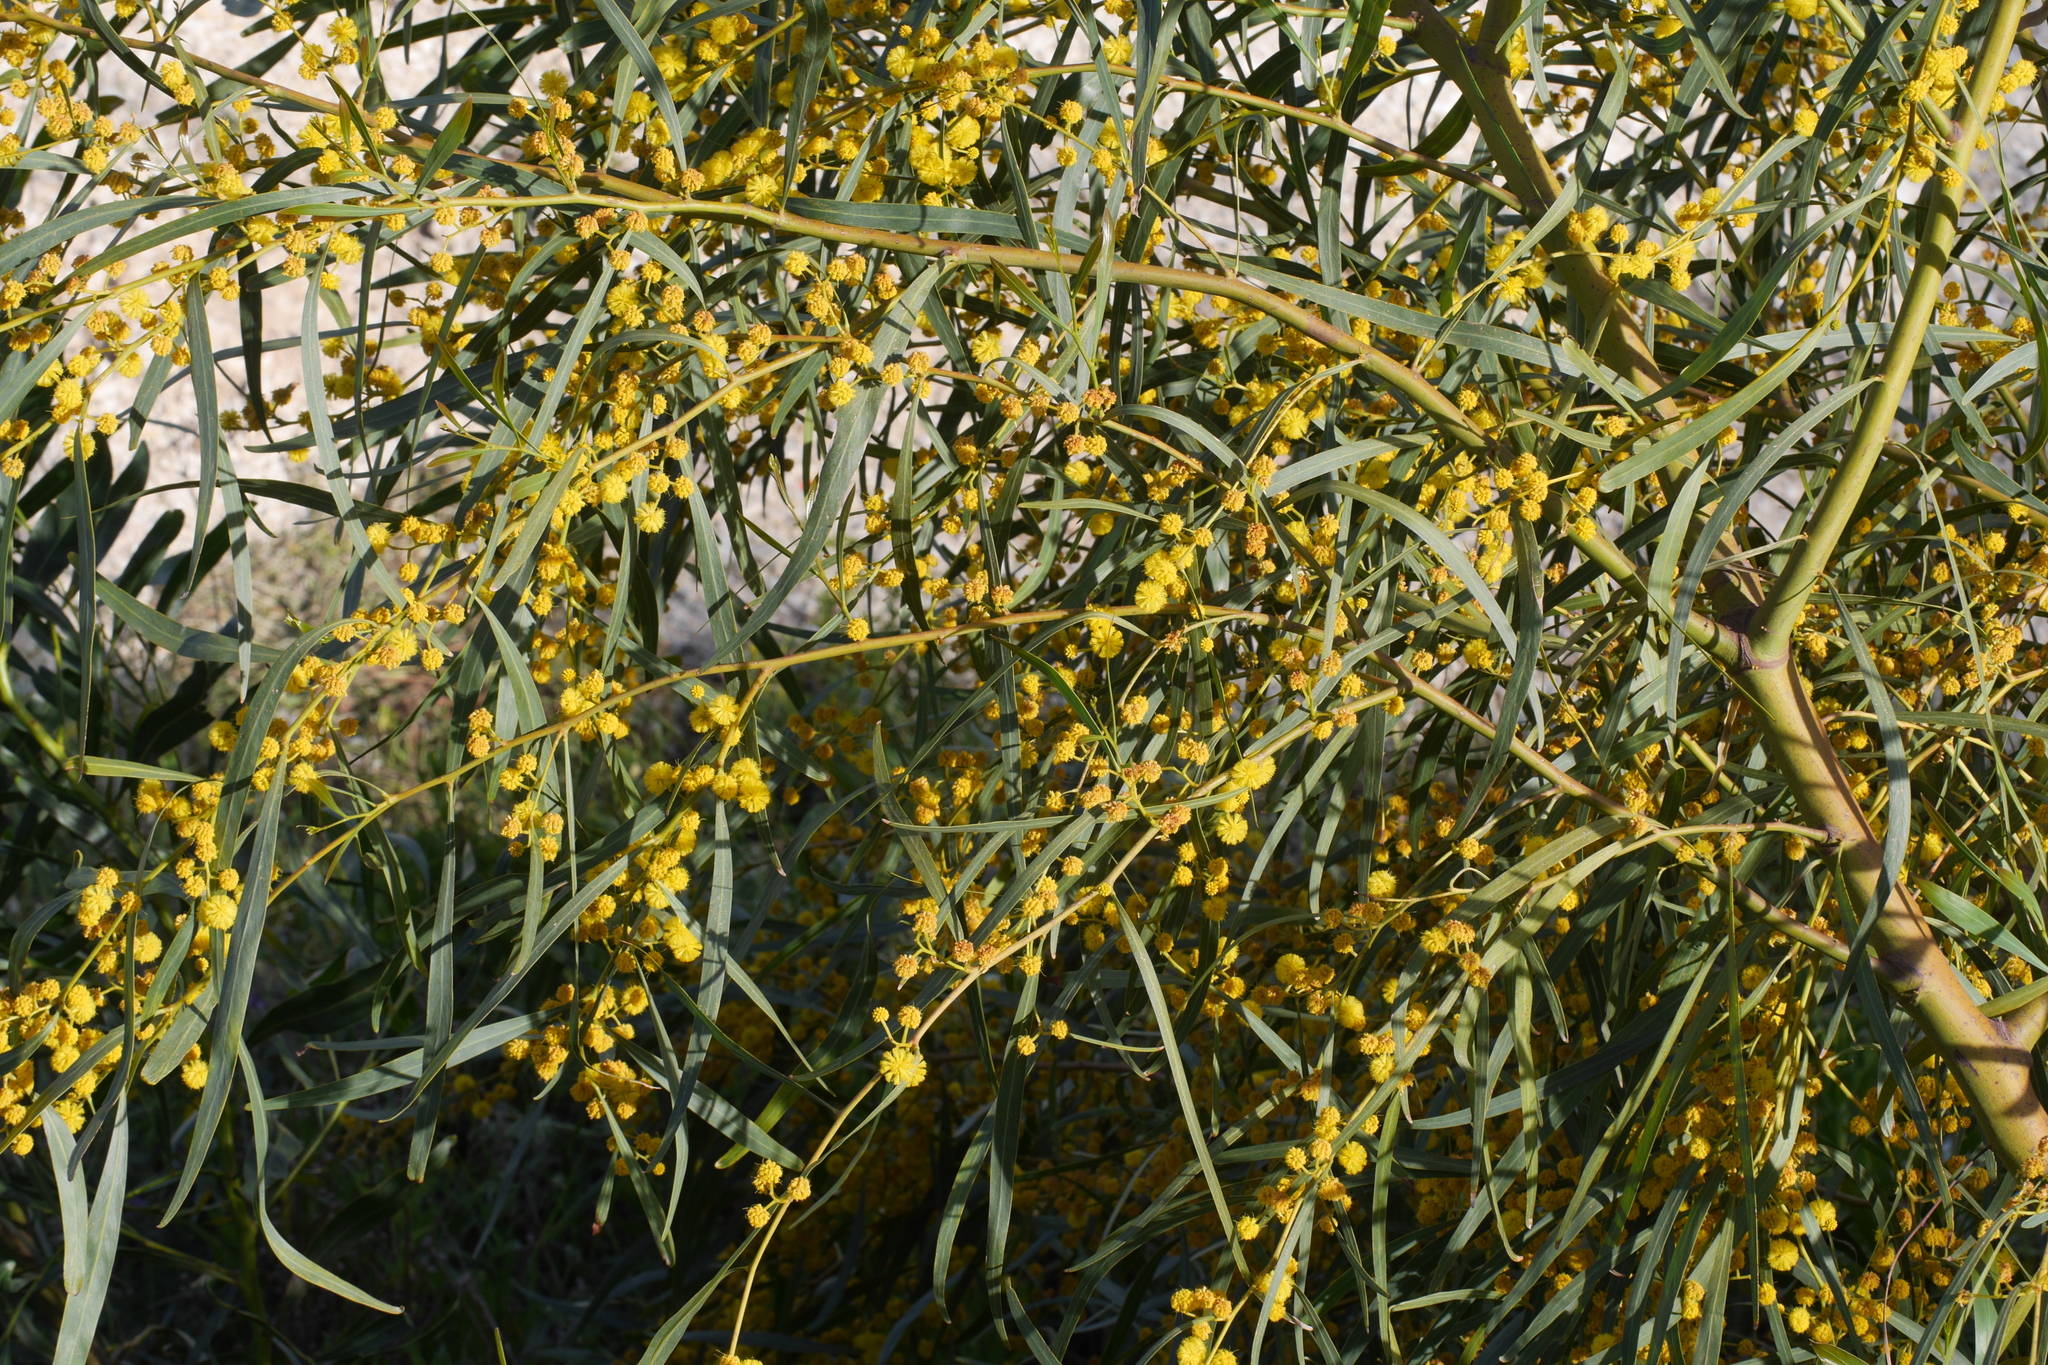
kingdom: Plantae
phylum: Tracheophyta
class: Magnoliopsida
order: Fabales
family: Fabaceae
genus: Acacia
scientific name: Acacia saligna
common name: Orange wattle
